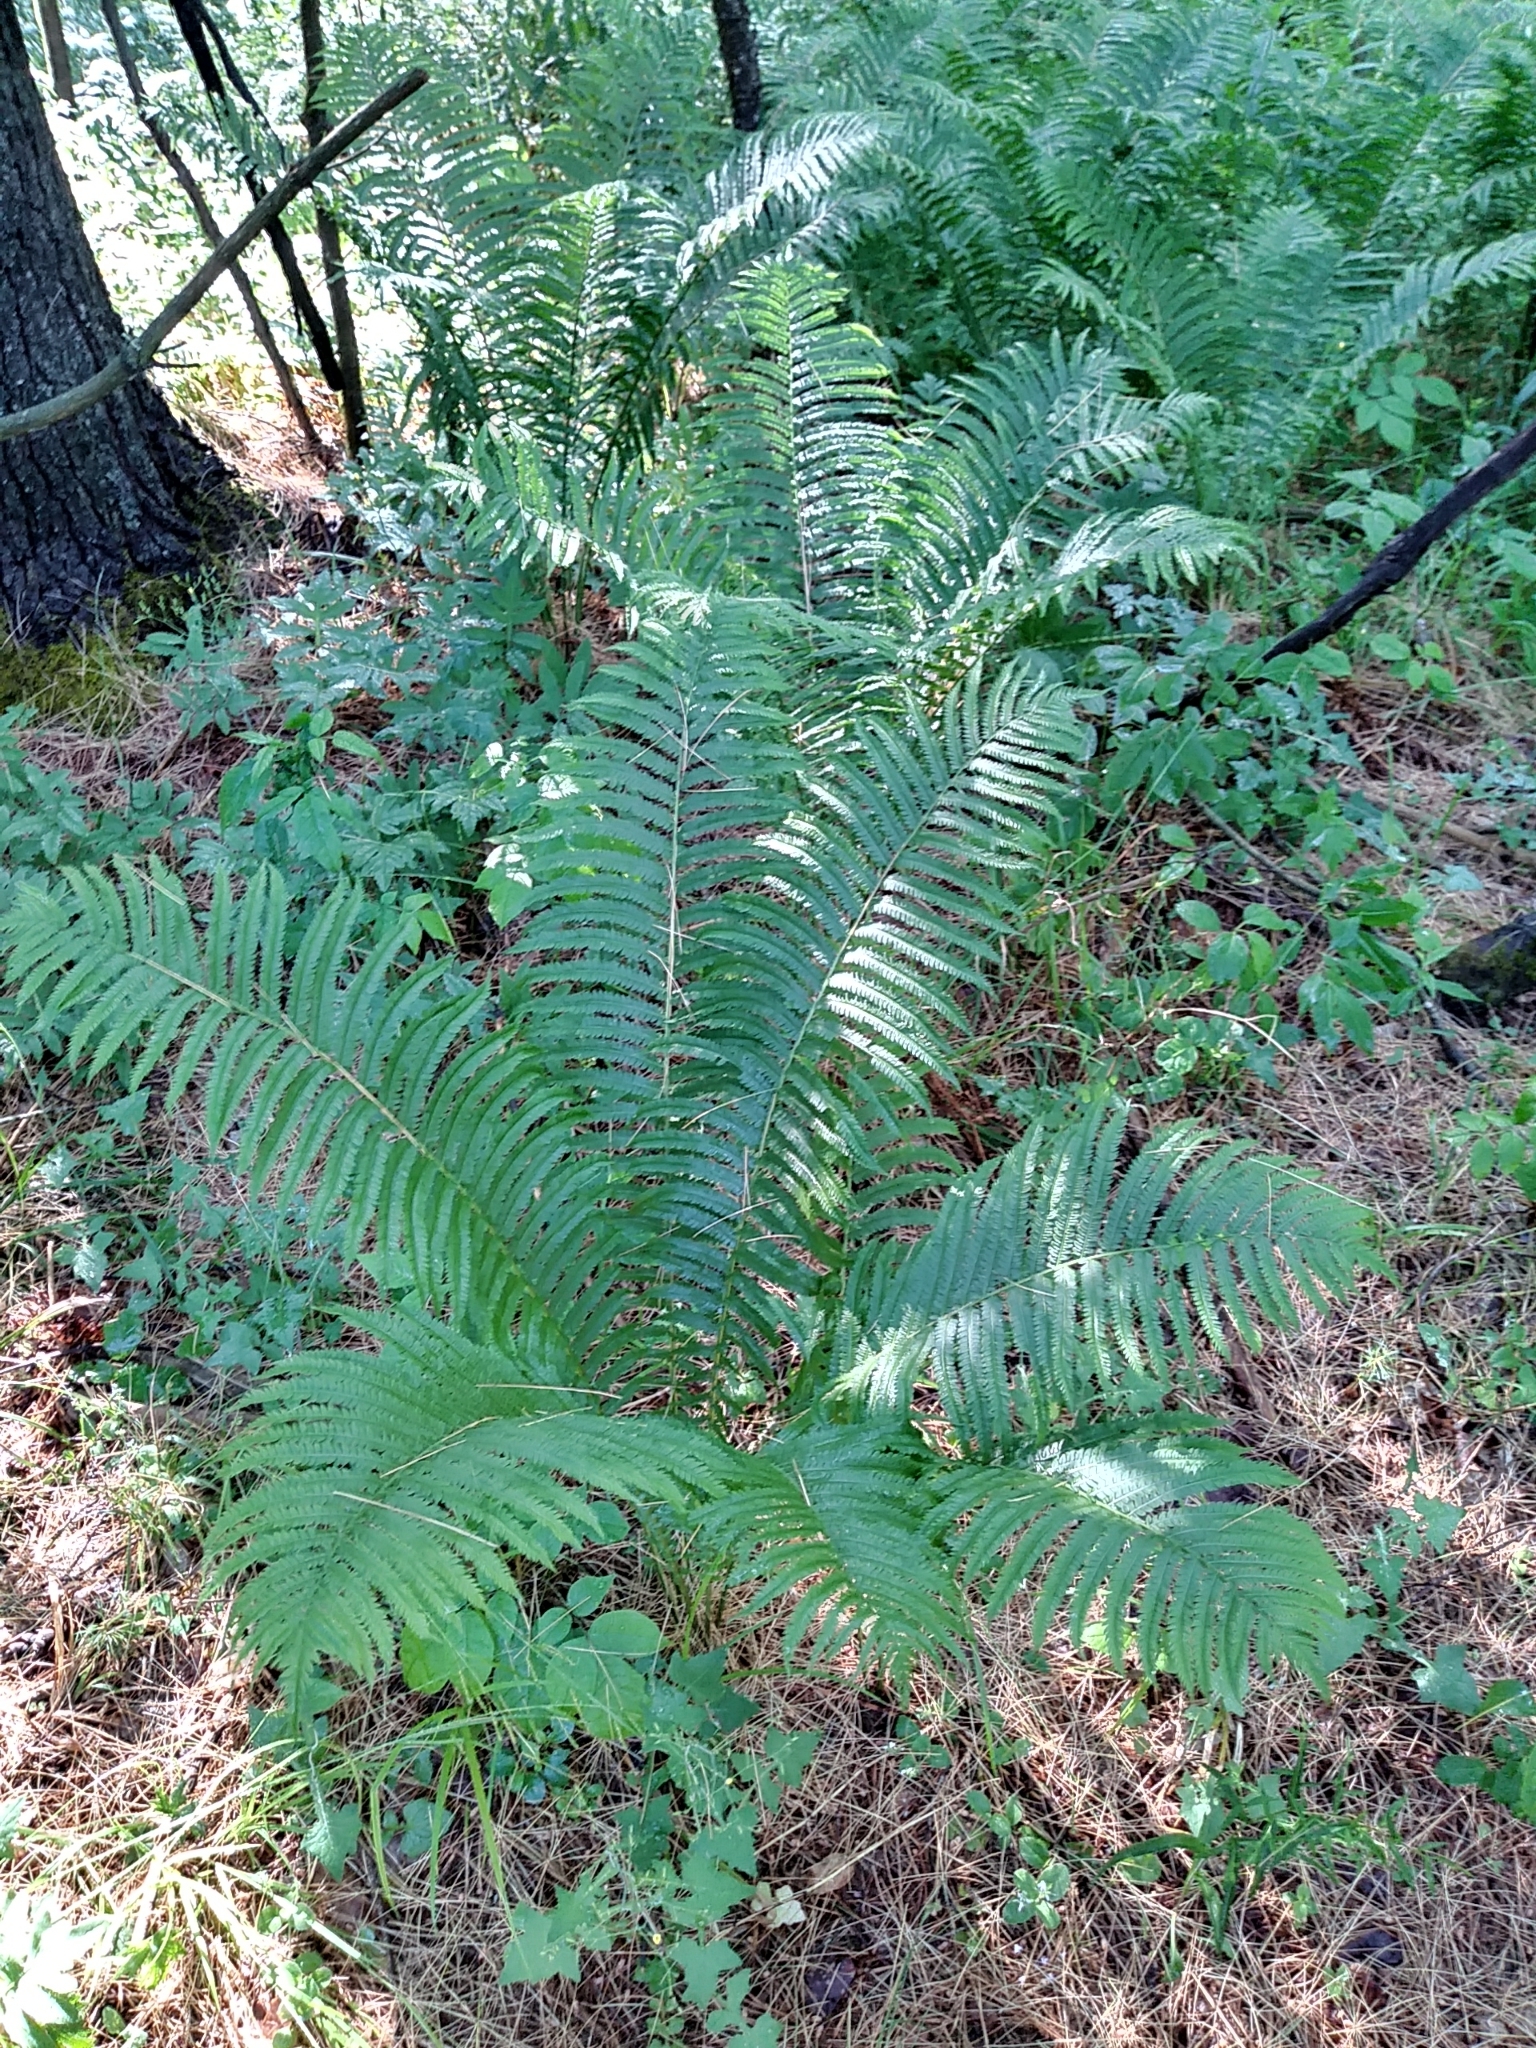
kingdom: Plantae
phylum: Tracheophyta
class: Polypodiopsida
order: Polypodiales
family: Onocleaceae
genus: Matteuccia
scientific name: Matteuccia struthiopteris
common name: Ostrich fern
